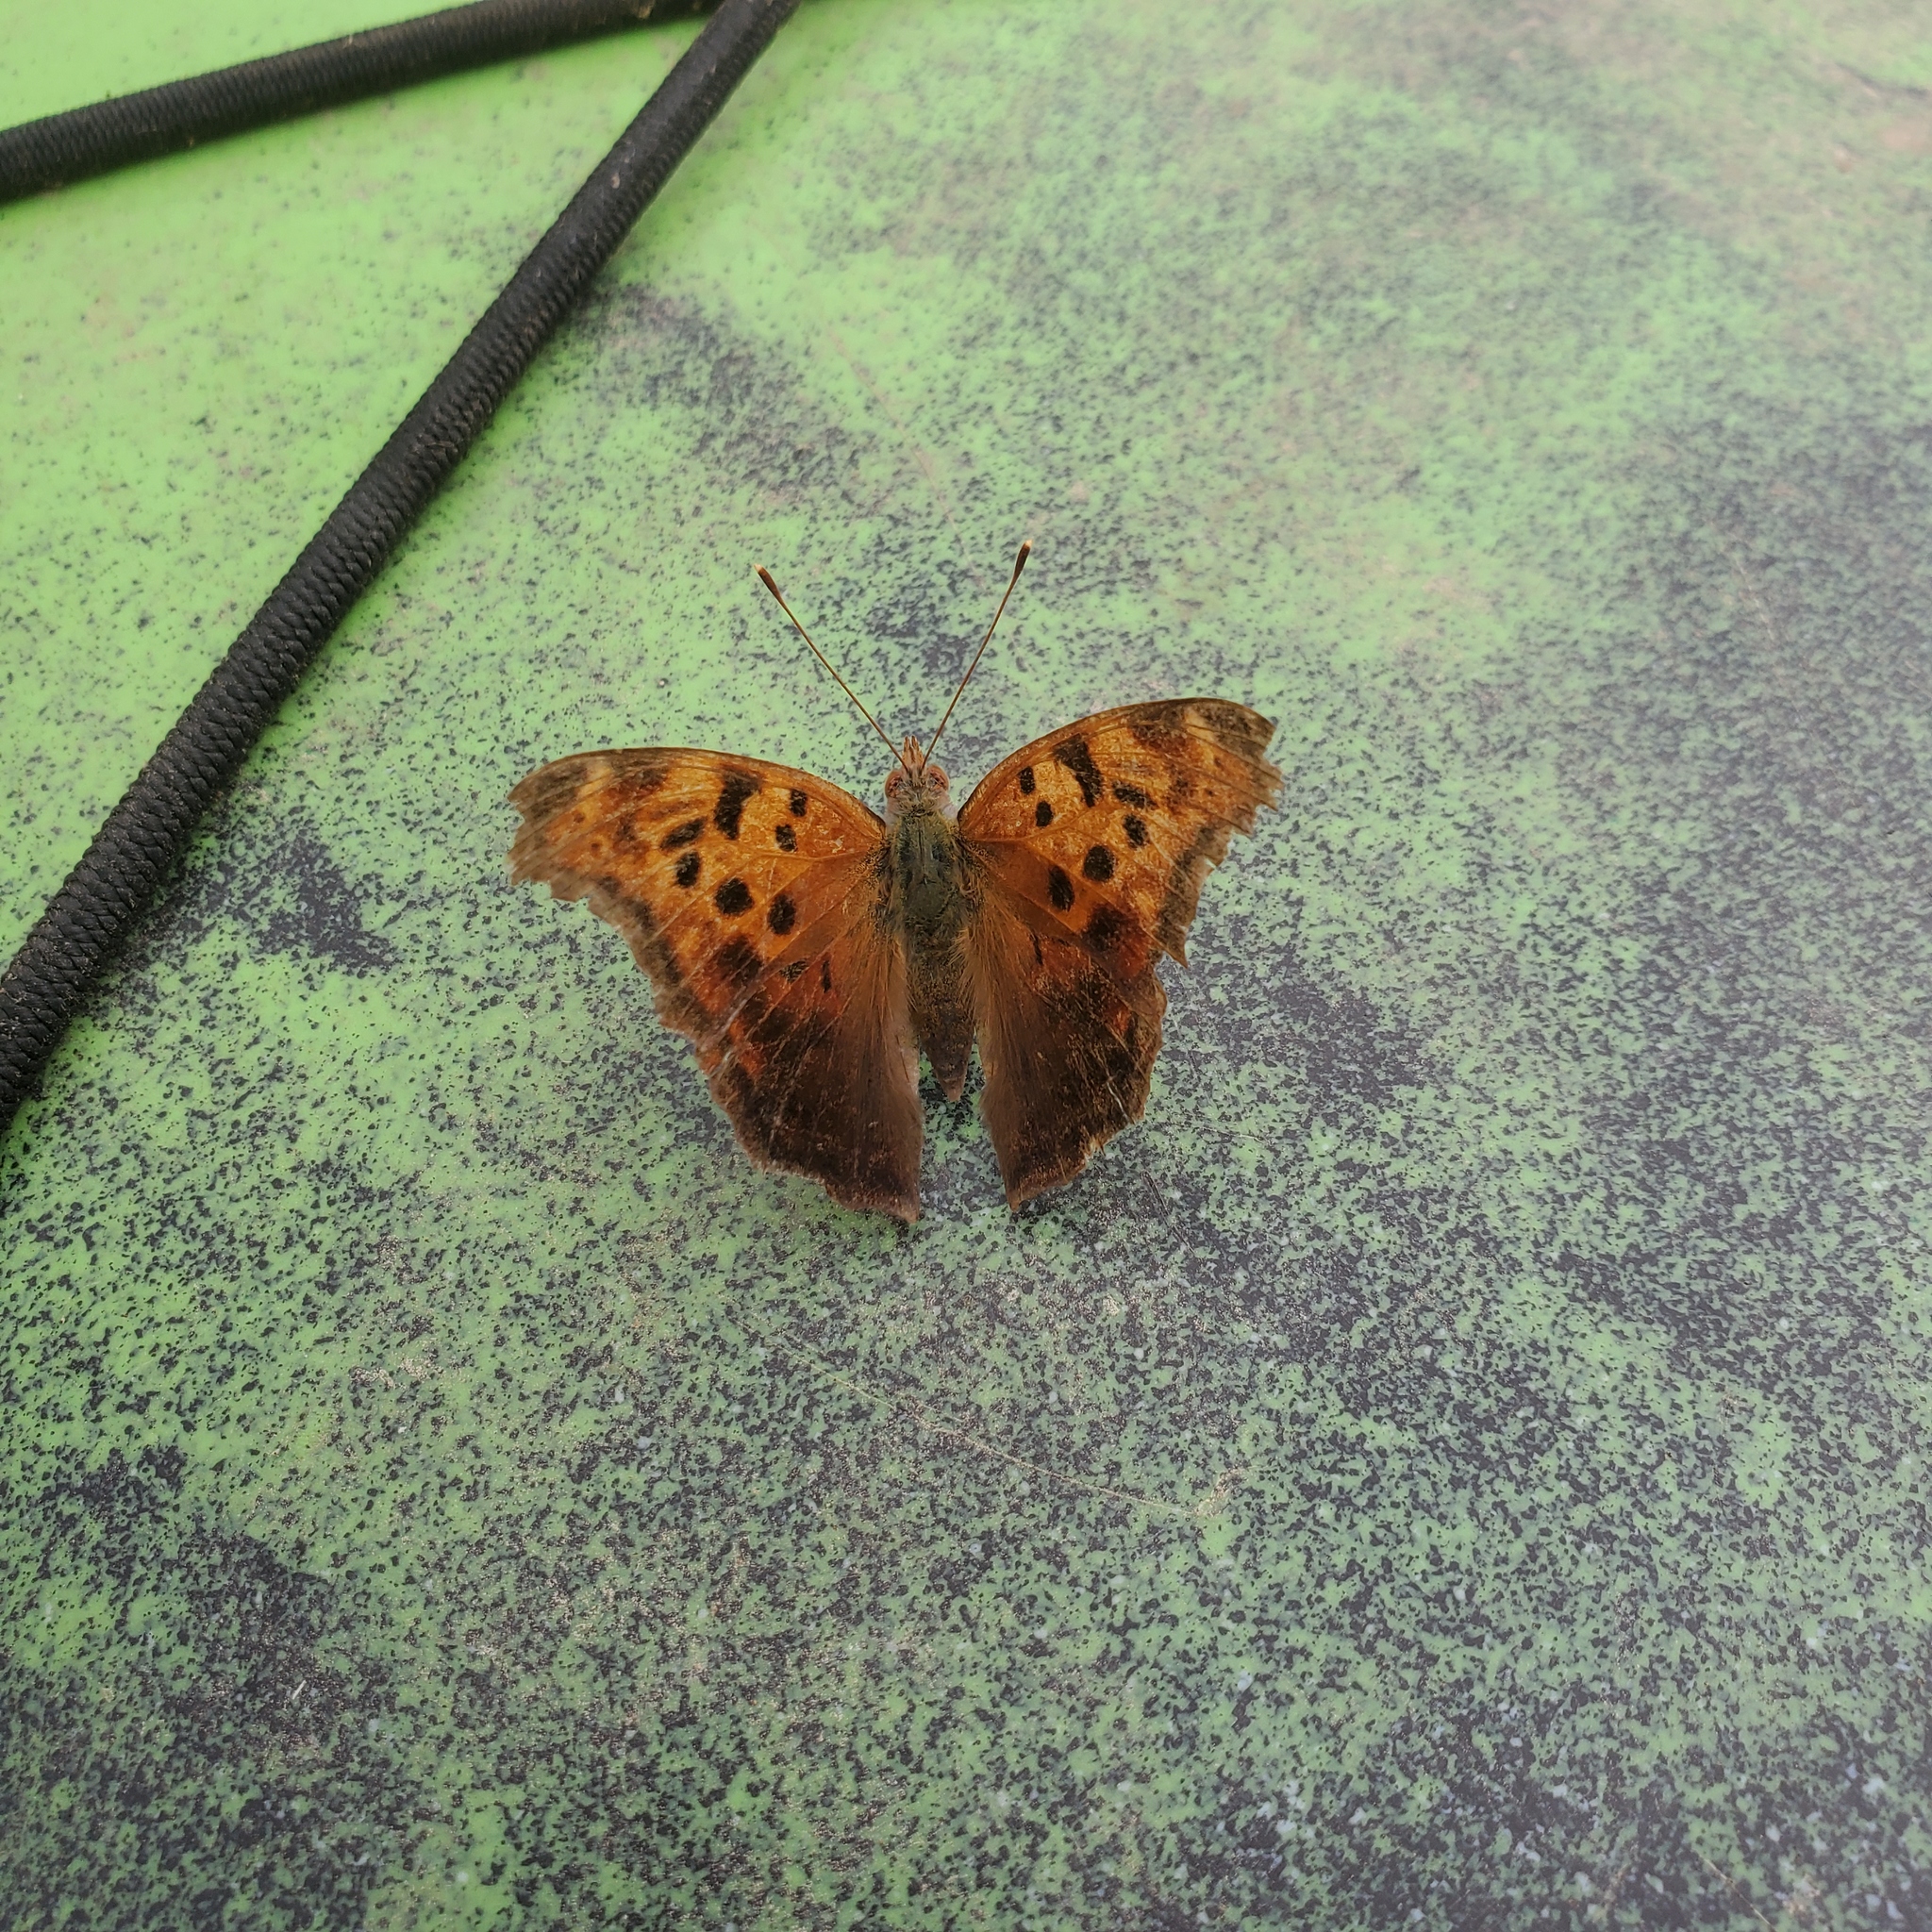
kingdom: Animalia
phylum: Arthropoda
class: Insecta
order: Lepidoptera
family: Nymphalidae
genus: Polygonia
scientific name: Polygonia interrogationis
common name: Question mark
